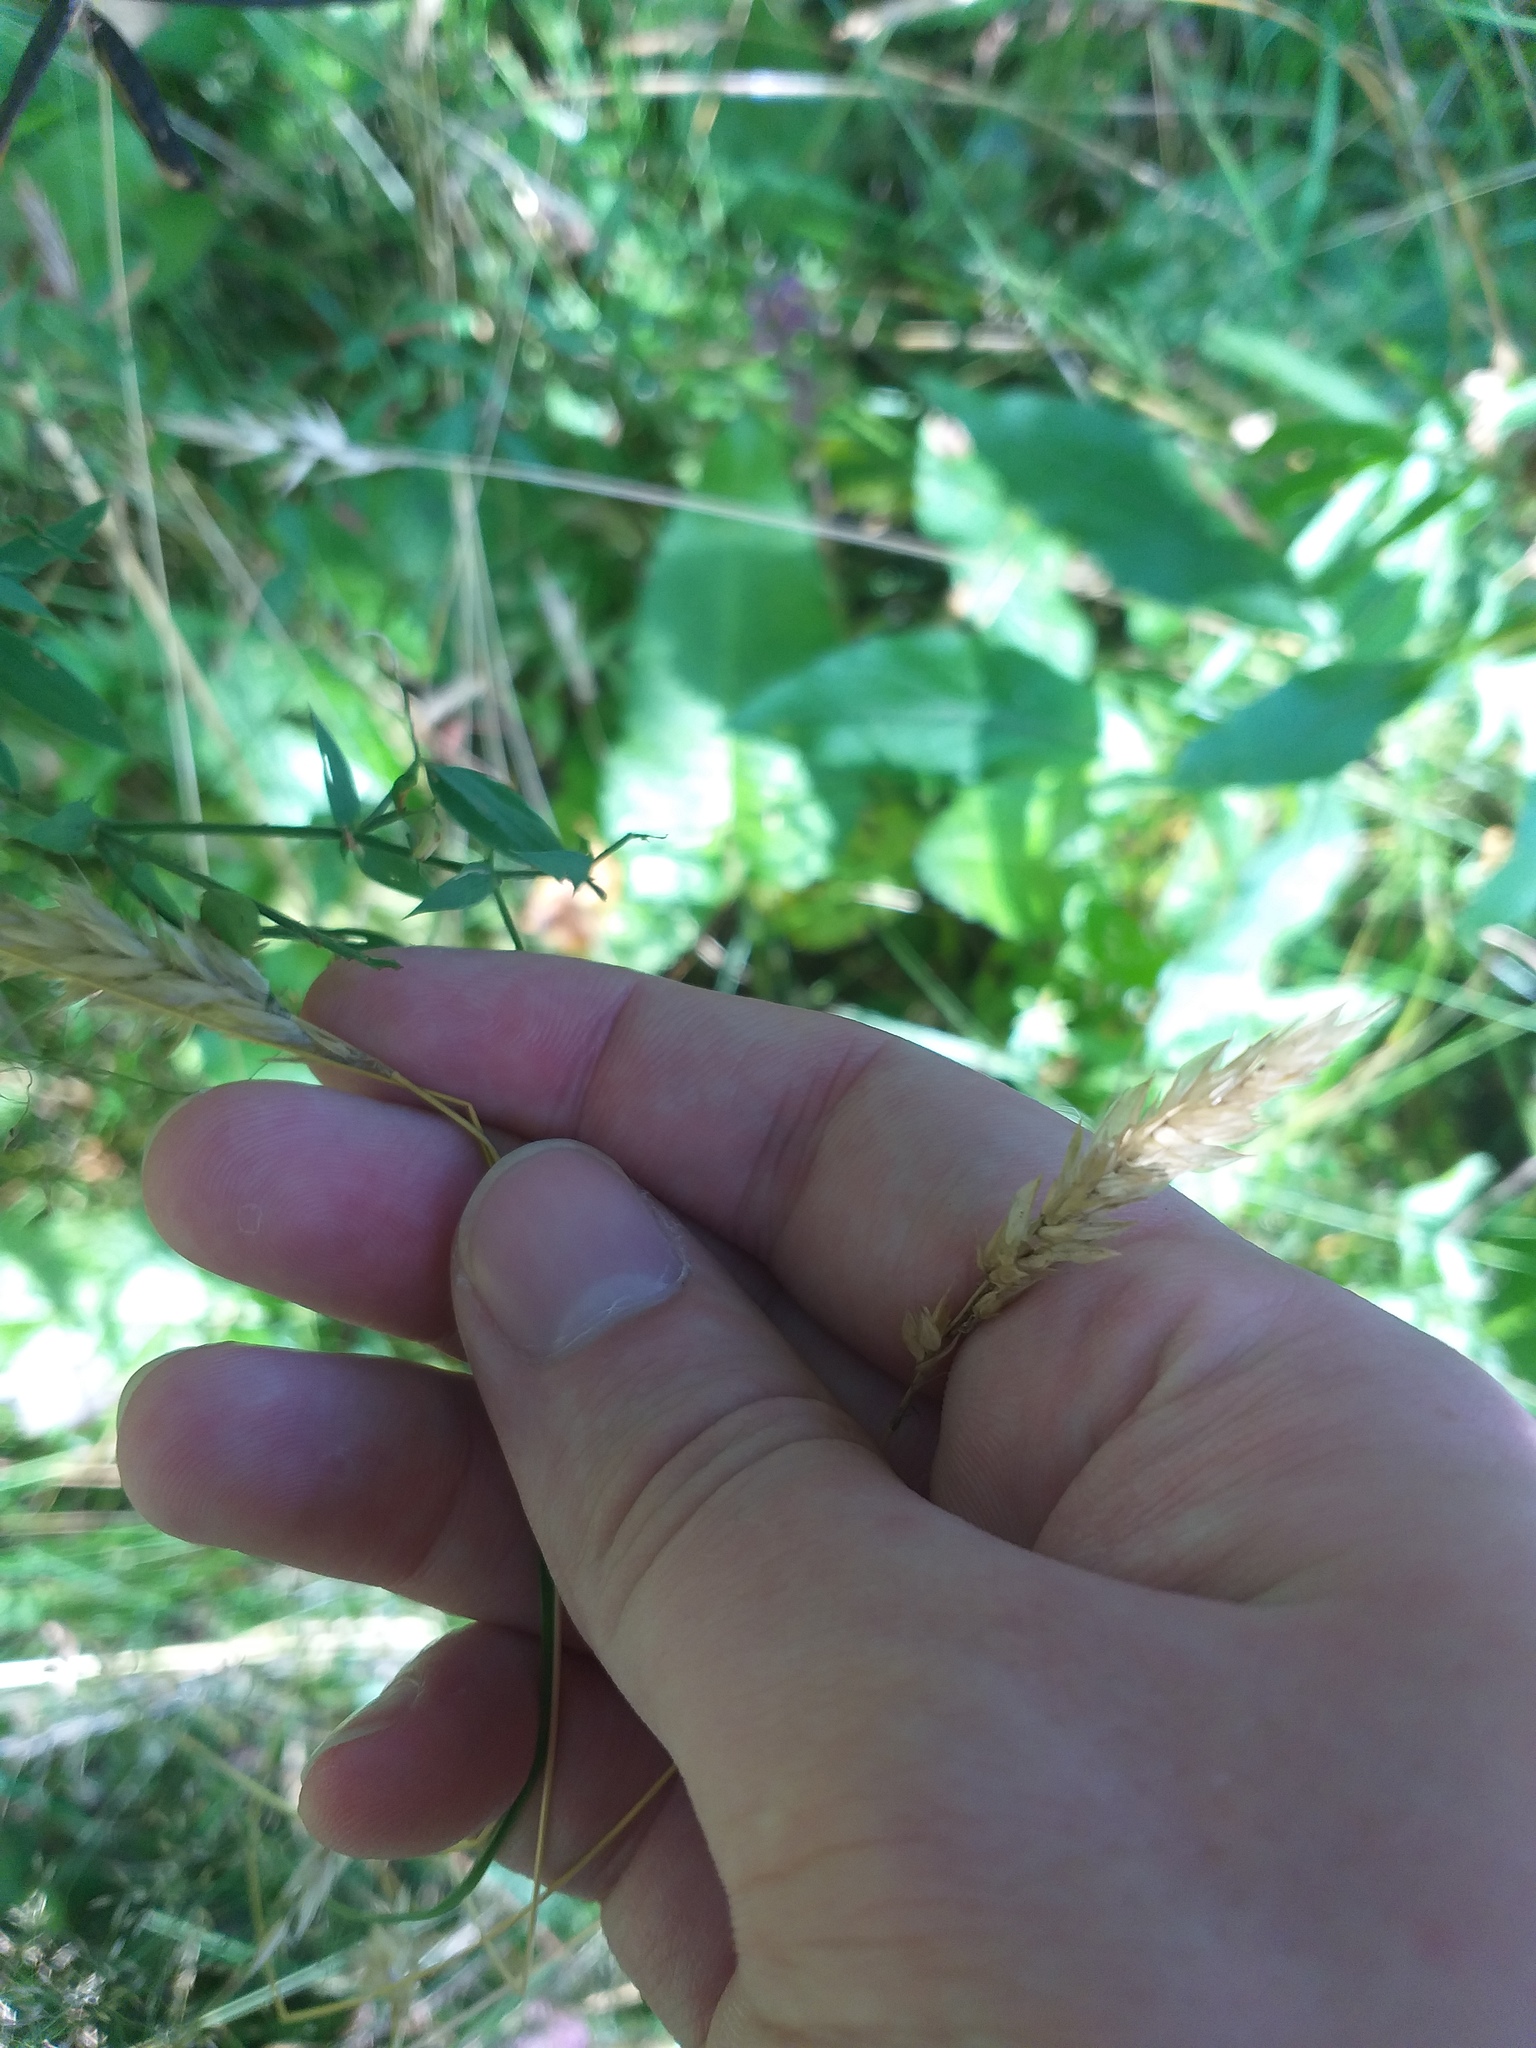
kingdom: Plantae
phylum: Tracheophyta
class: Liliopsida
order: Poales
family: Poaceae
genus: Anthoxanthum
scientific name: Anthoxanthum odoratum
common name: Sweet vernalgrass
